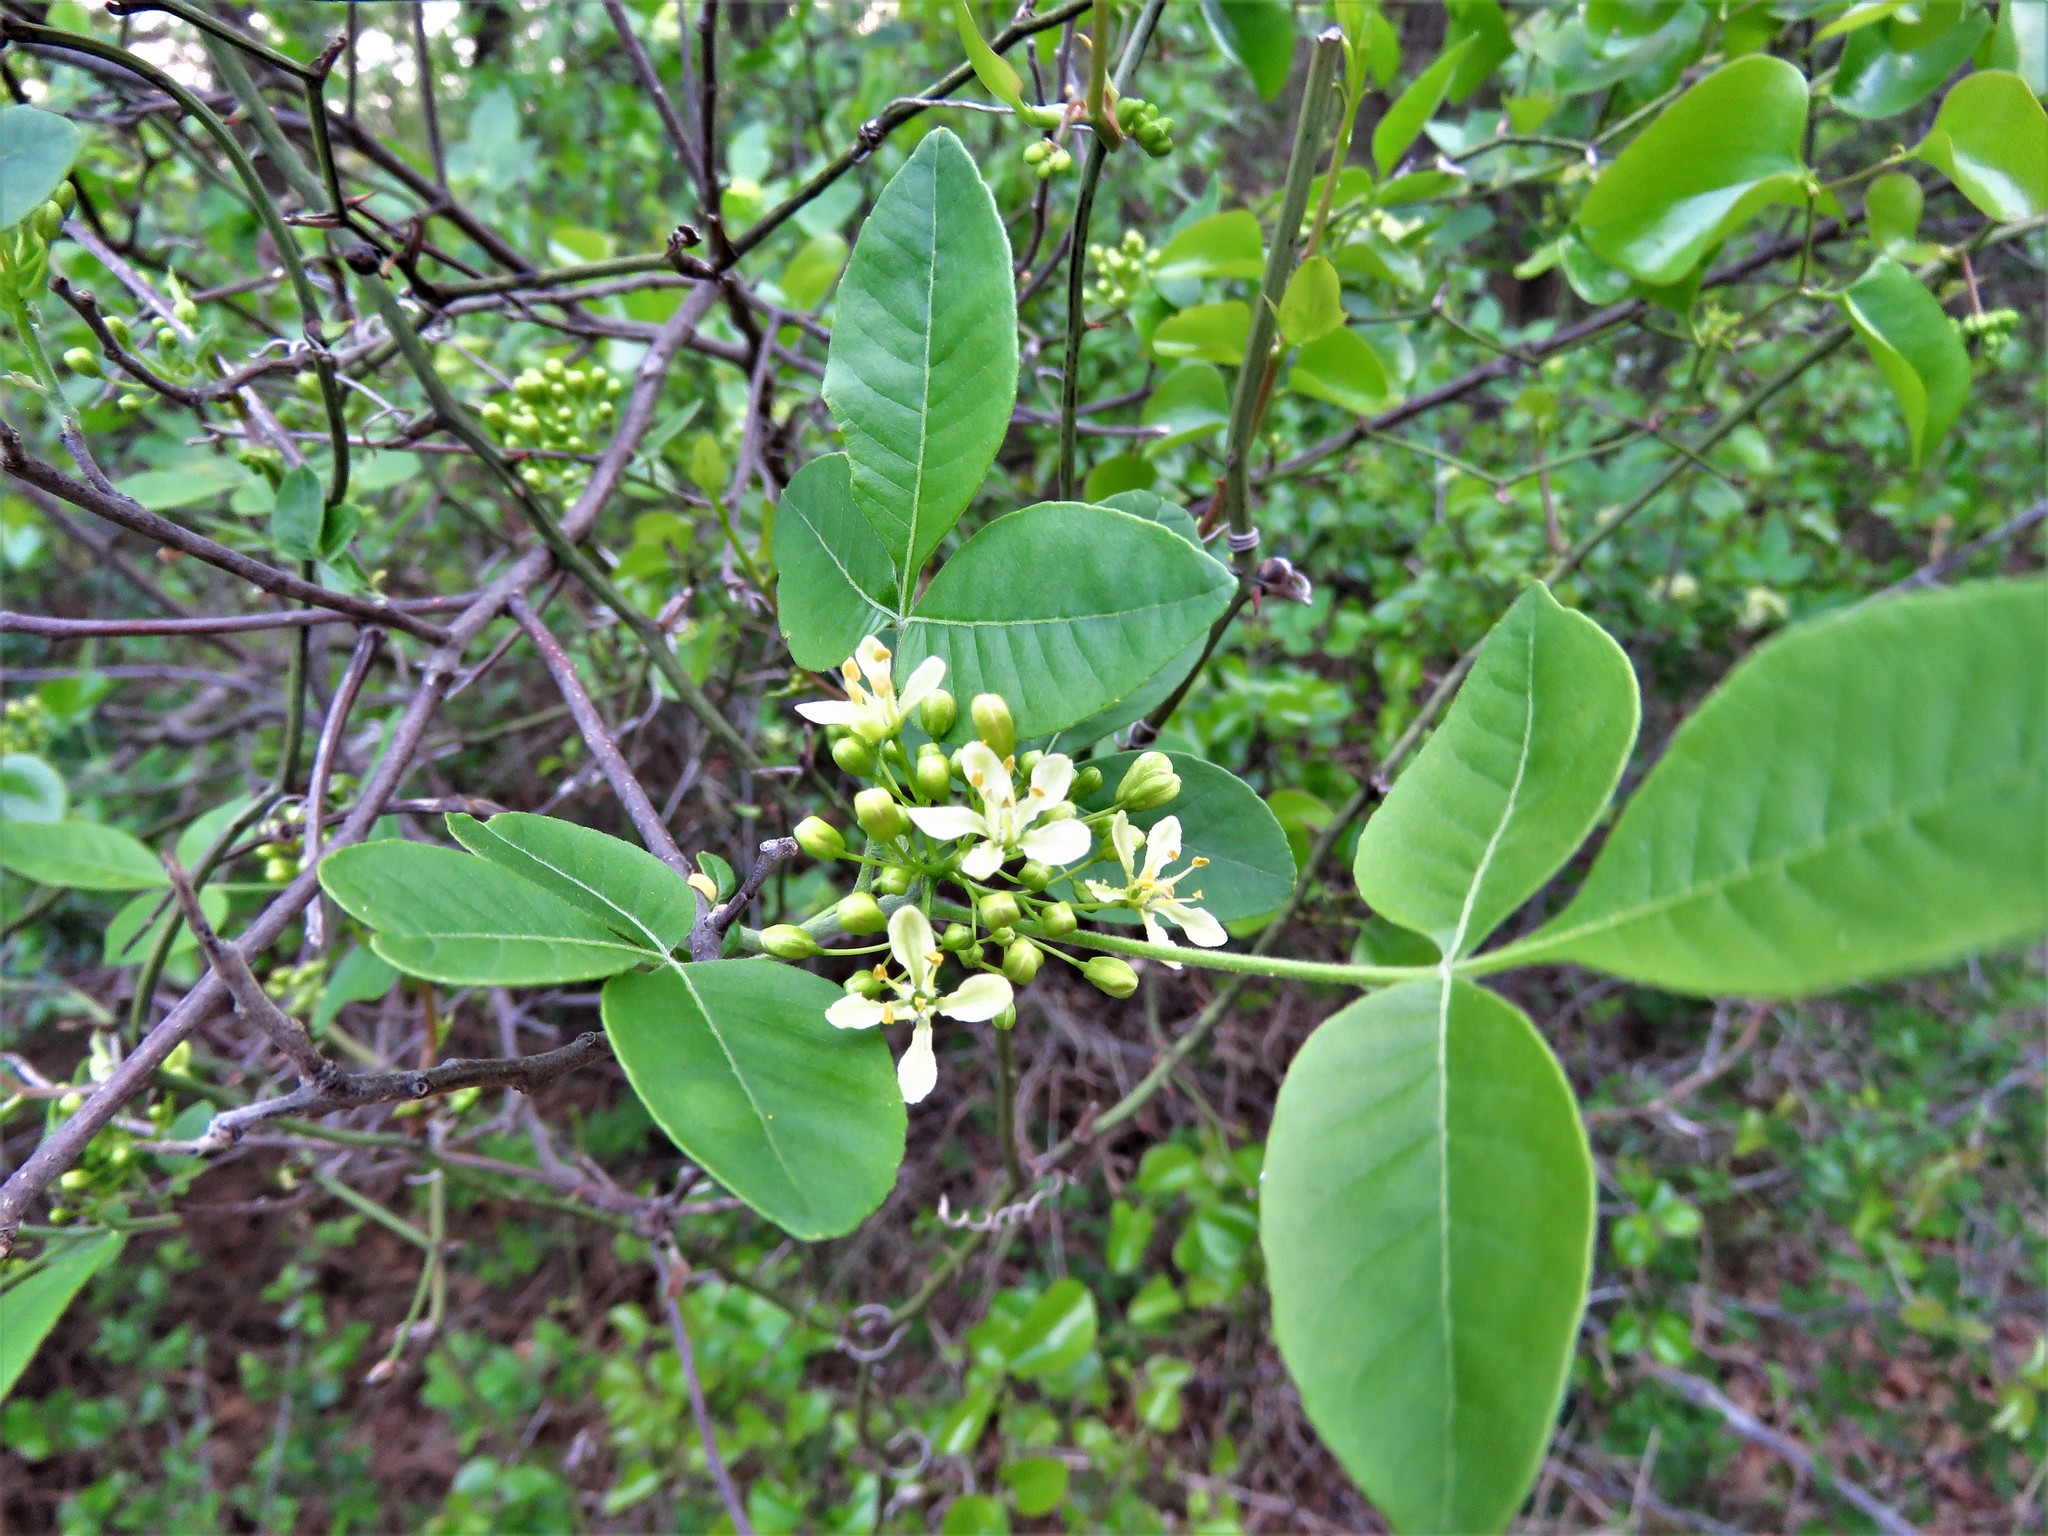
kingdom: Plantae
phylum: Tracheophyta
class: Magnoliopsida
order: Sapindales
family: Rutaceae
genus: Ptelea
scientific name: Ptelea trifoliata
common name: Common hop-tree
